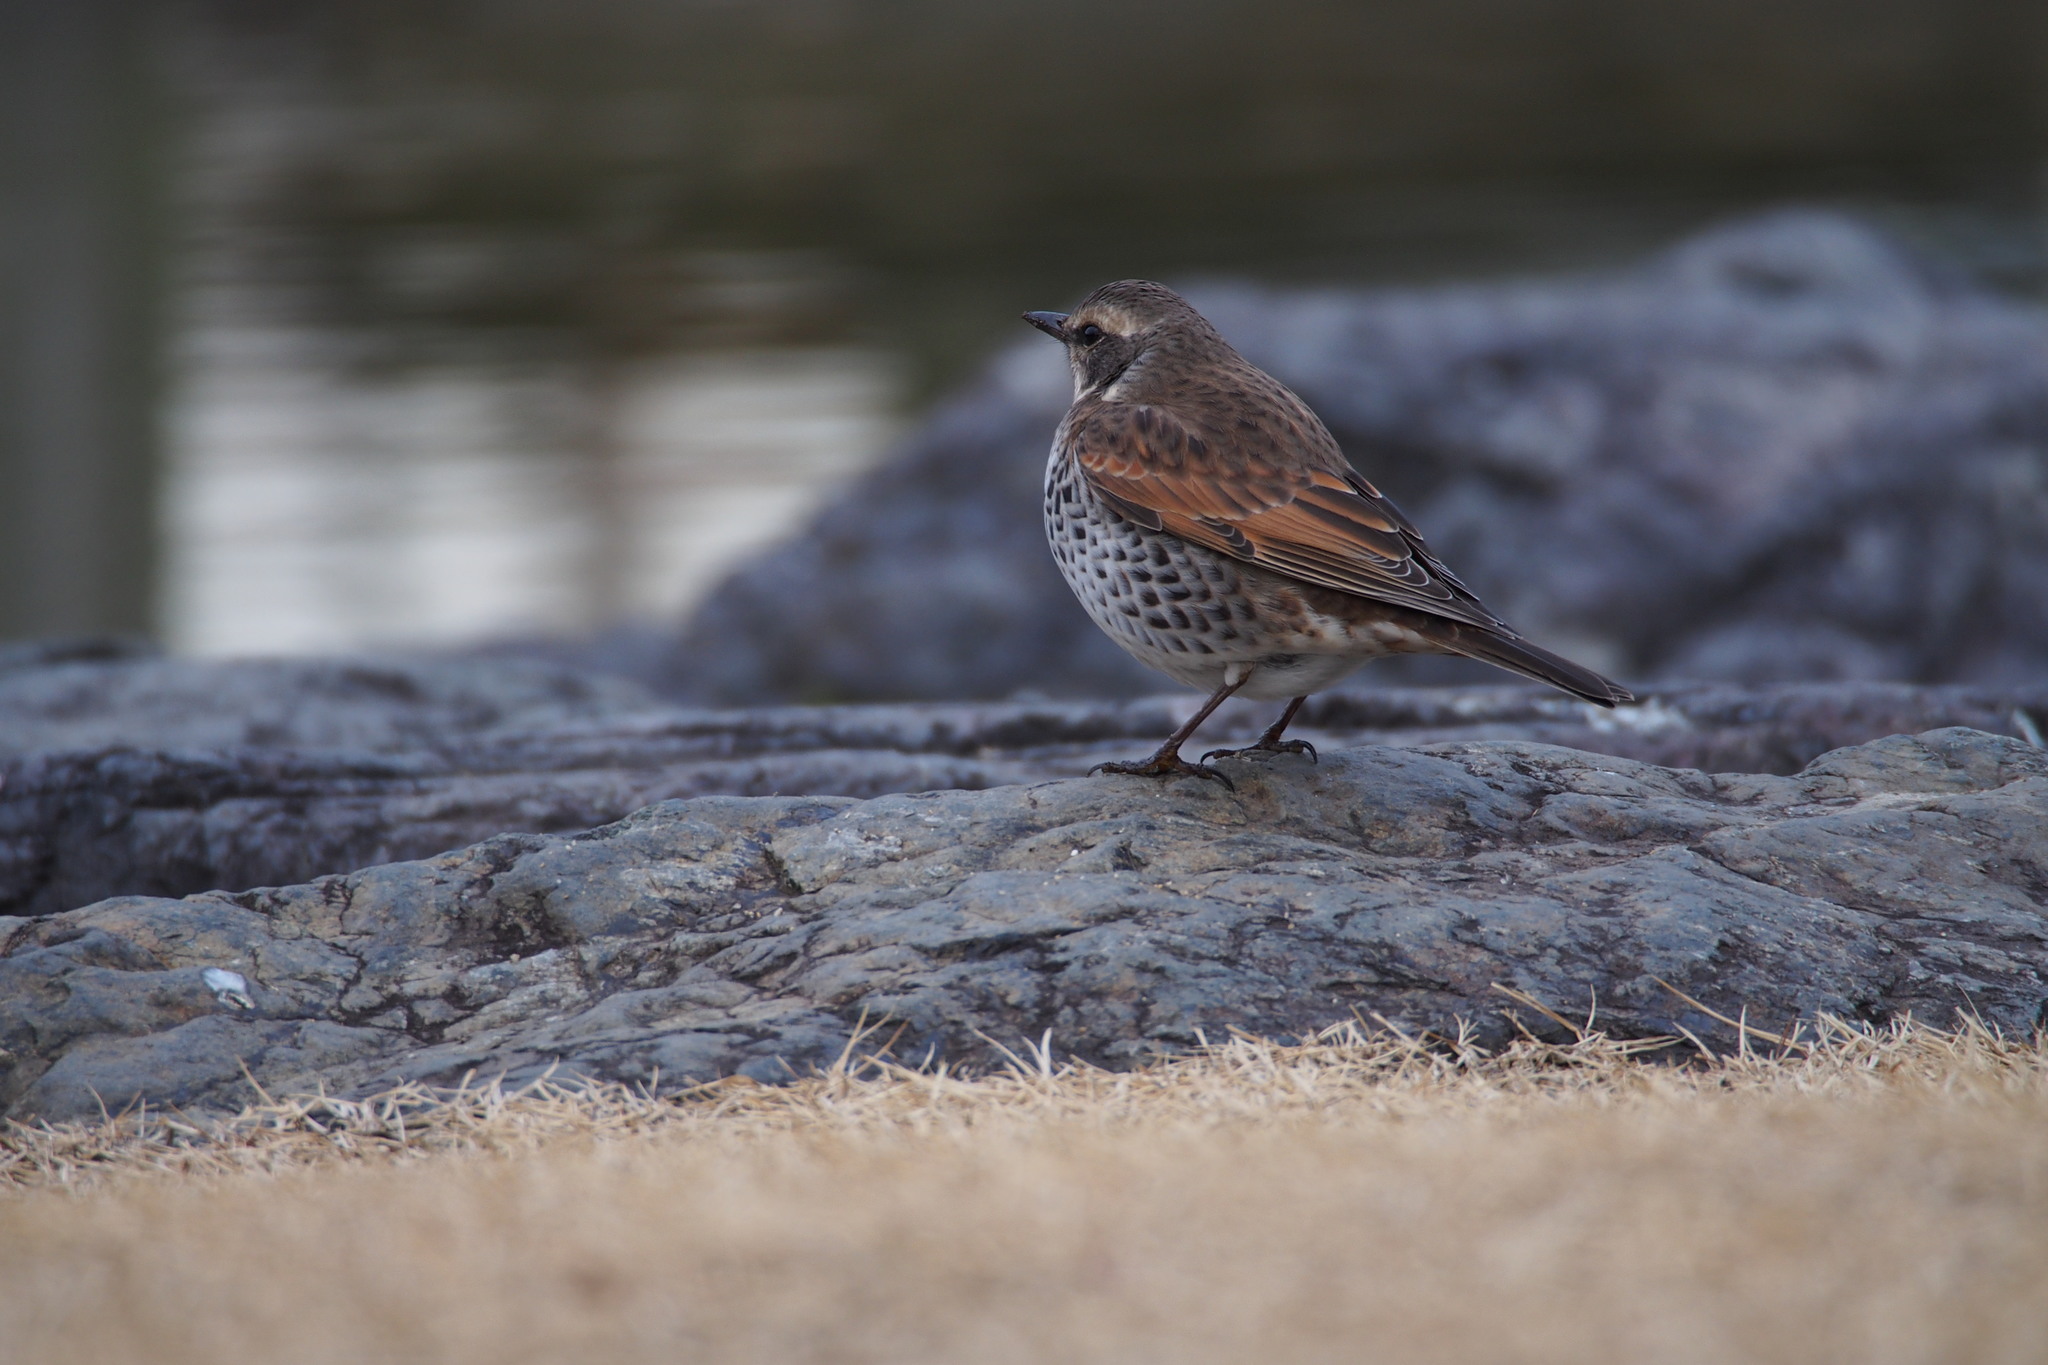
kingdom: Animalia
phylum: Chordata
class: Aves
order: Passeriformes
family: Turdidae
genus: Turdus
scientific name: Turdus eunomus
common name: Dusky thrush
